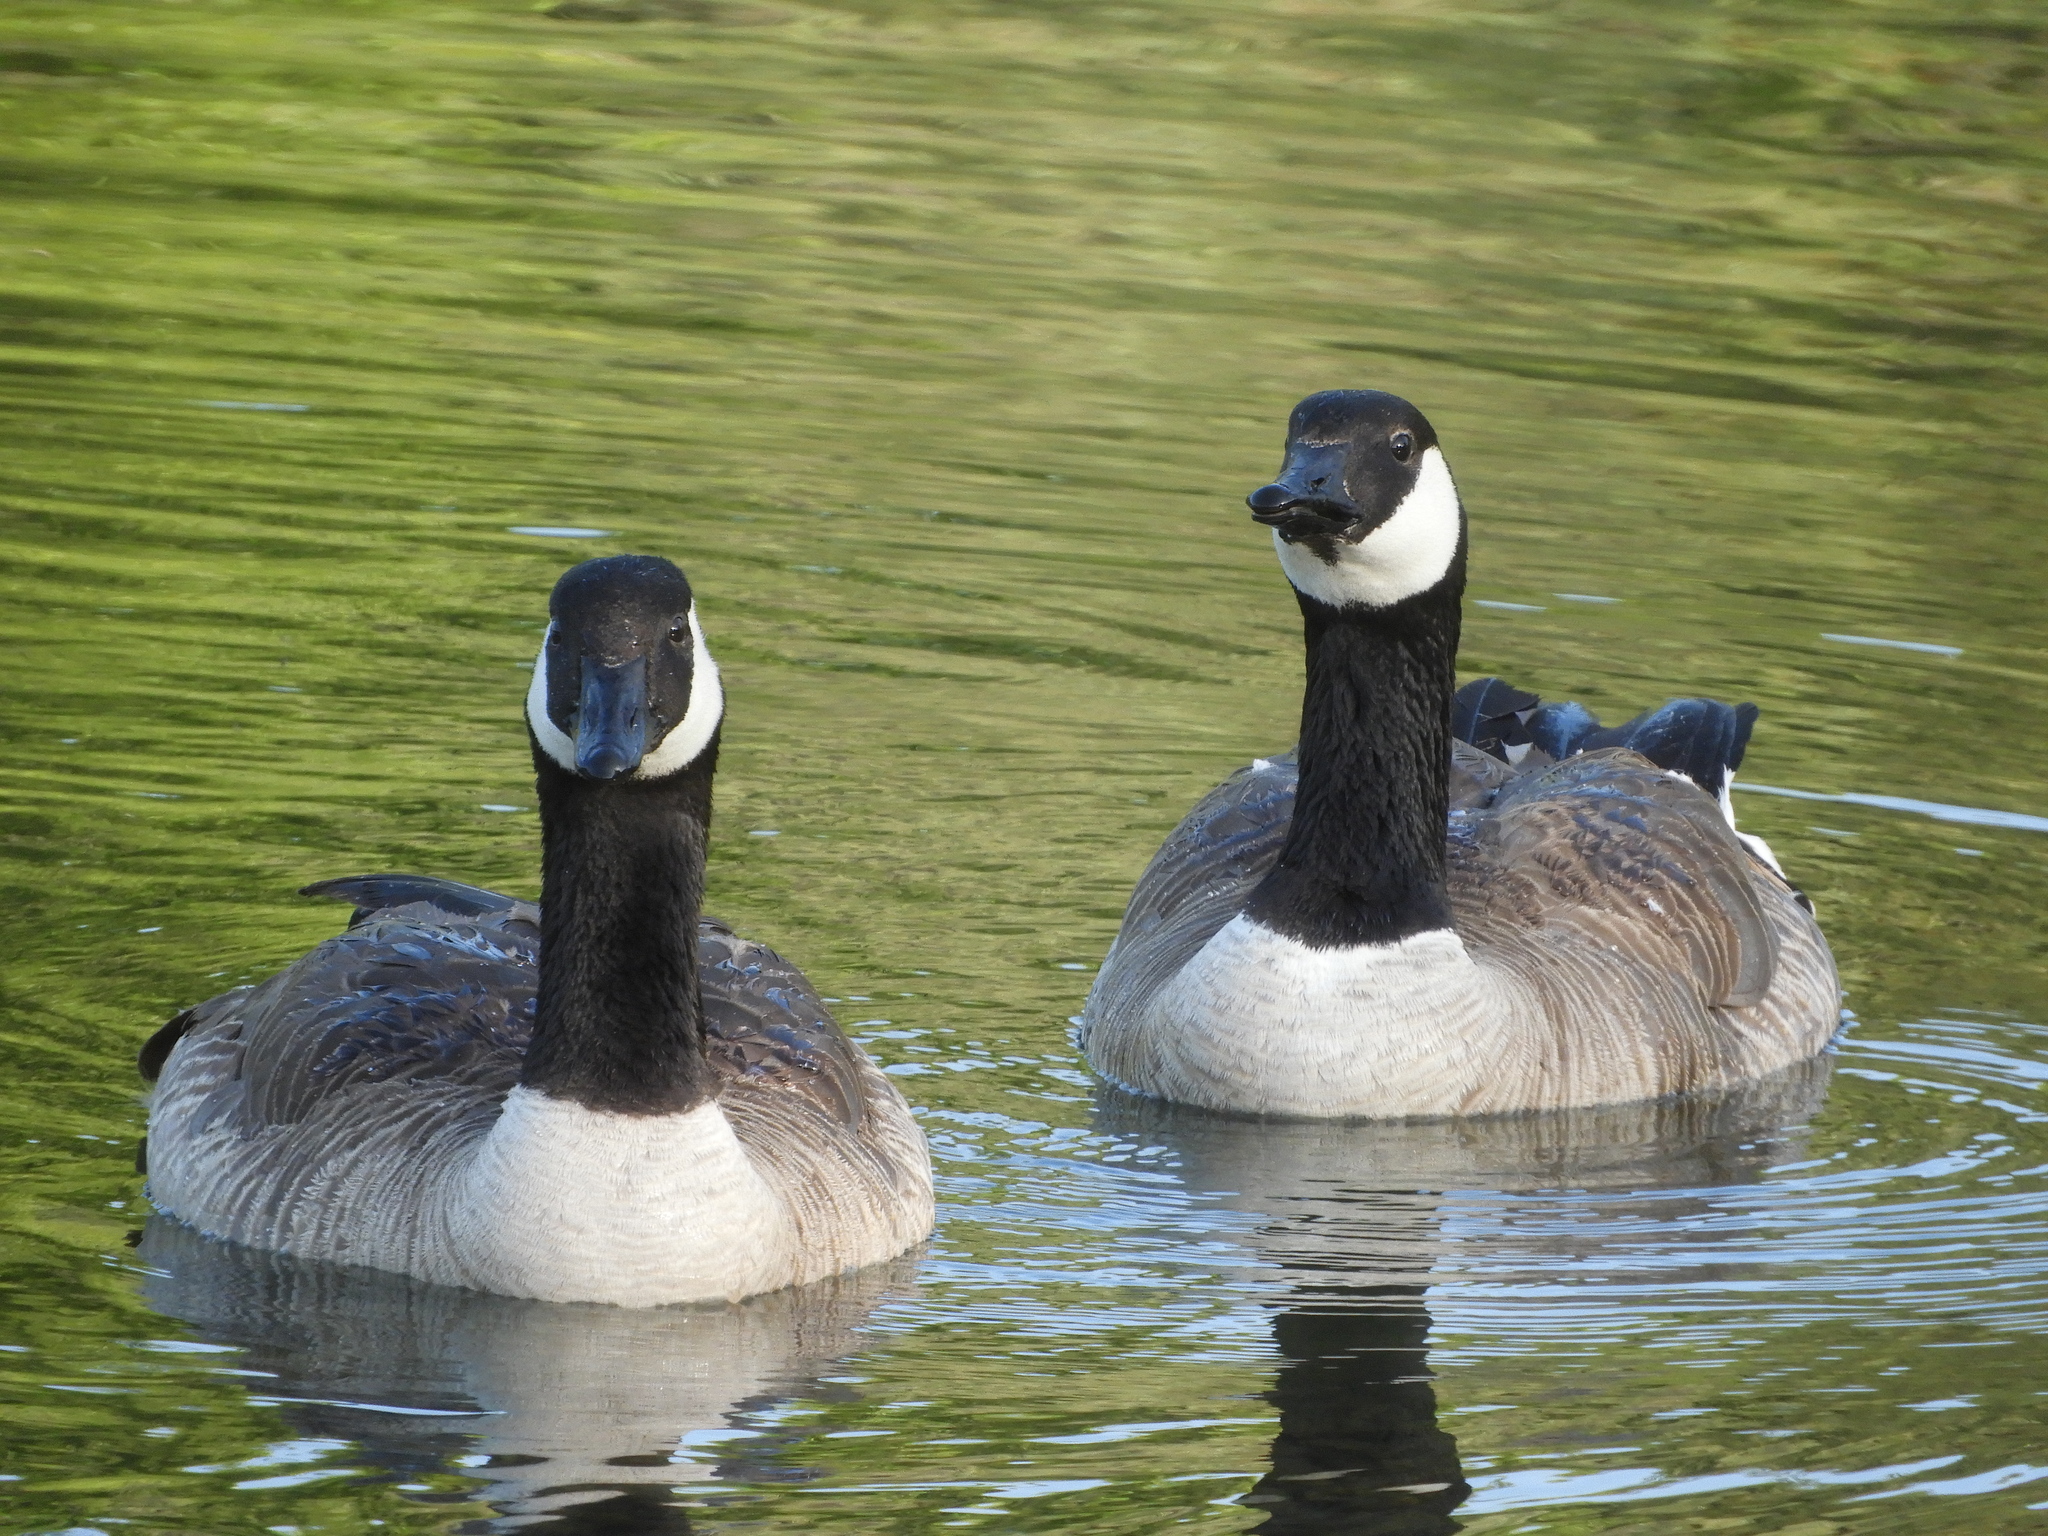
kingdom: Animalia
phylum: Chordata
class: Aves
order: Anseriformes
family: Anatidae
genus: Branta
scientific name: Branta canadensis
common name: Canada goose
